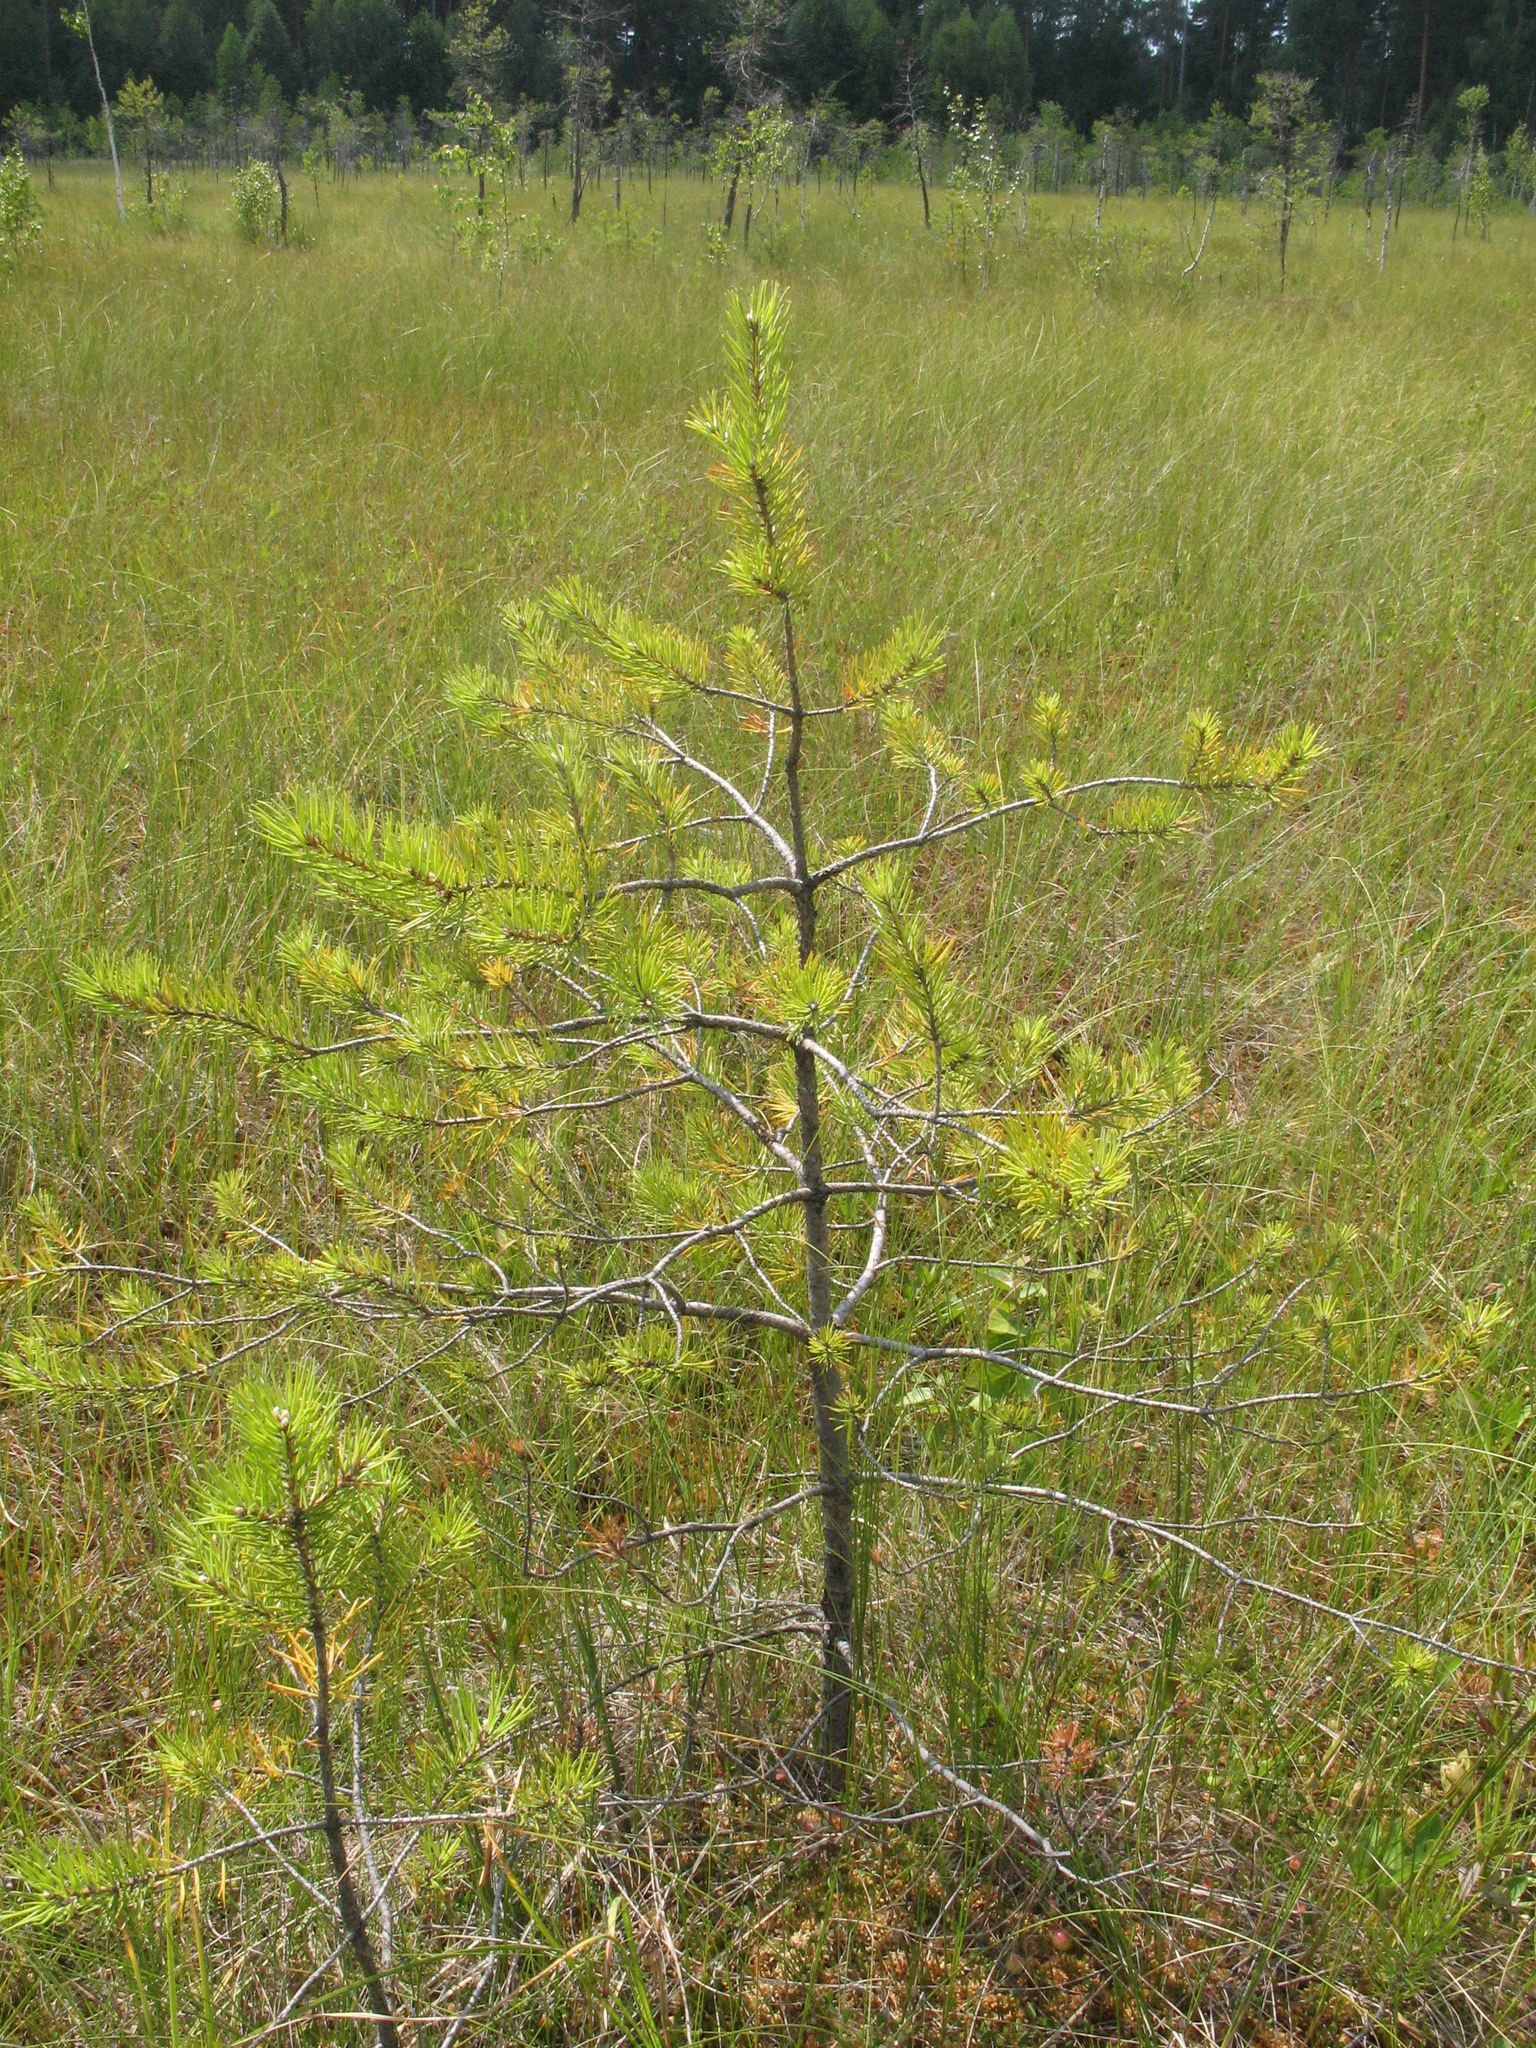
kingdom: Plantae
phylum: Tracheophyta
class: Pinopsida
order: Pinales
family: Pinaceae
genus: Pinus
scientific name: Pinus sylvestris
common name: Scots pine
